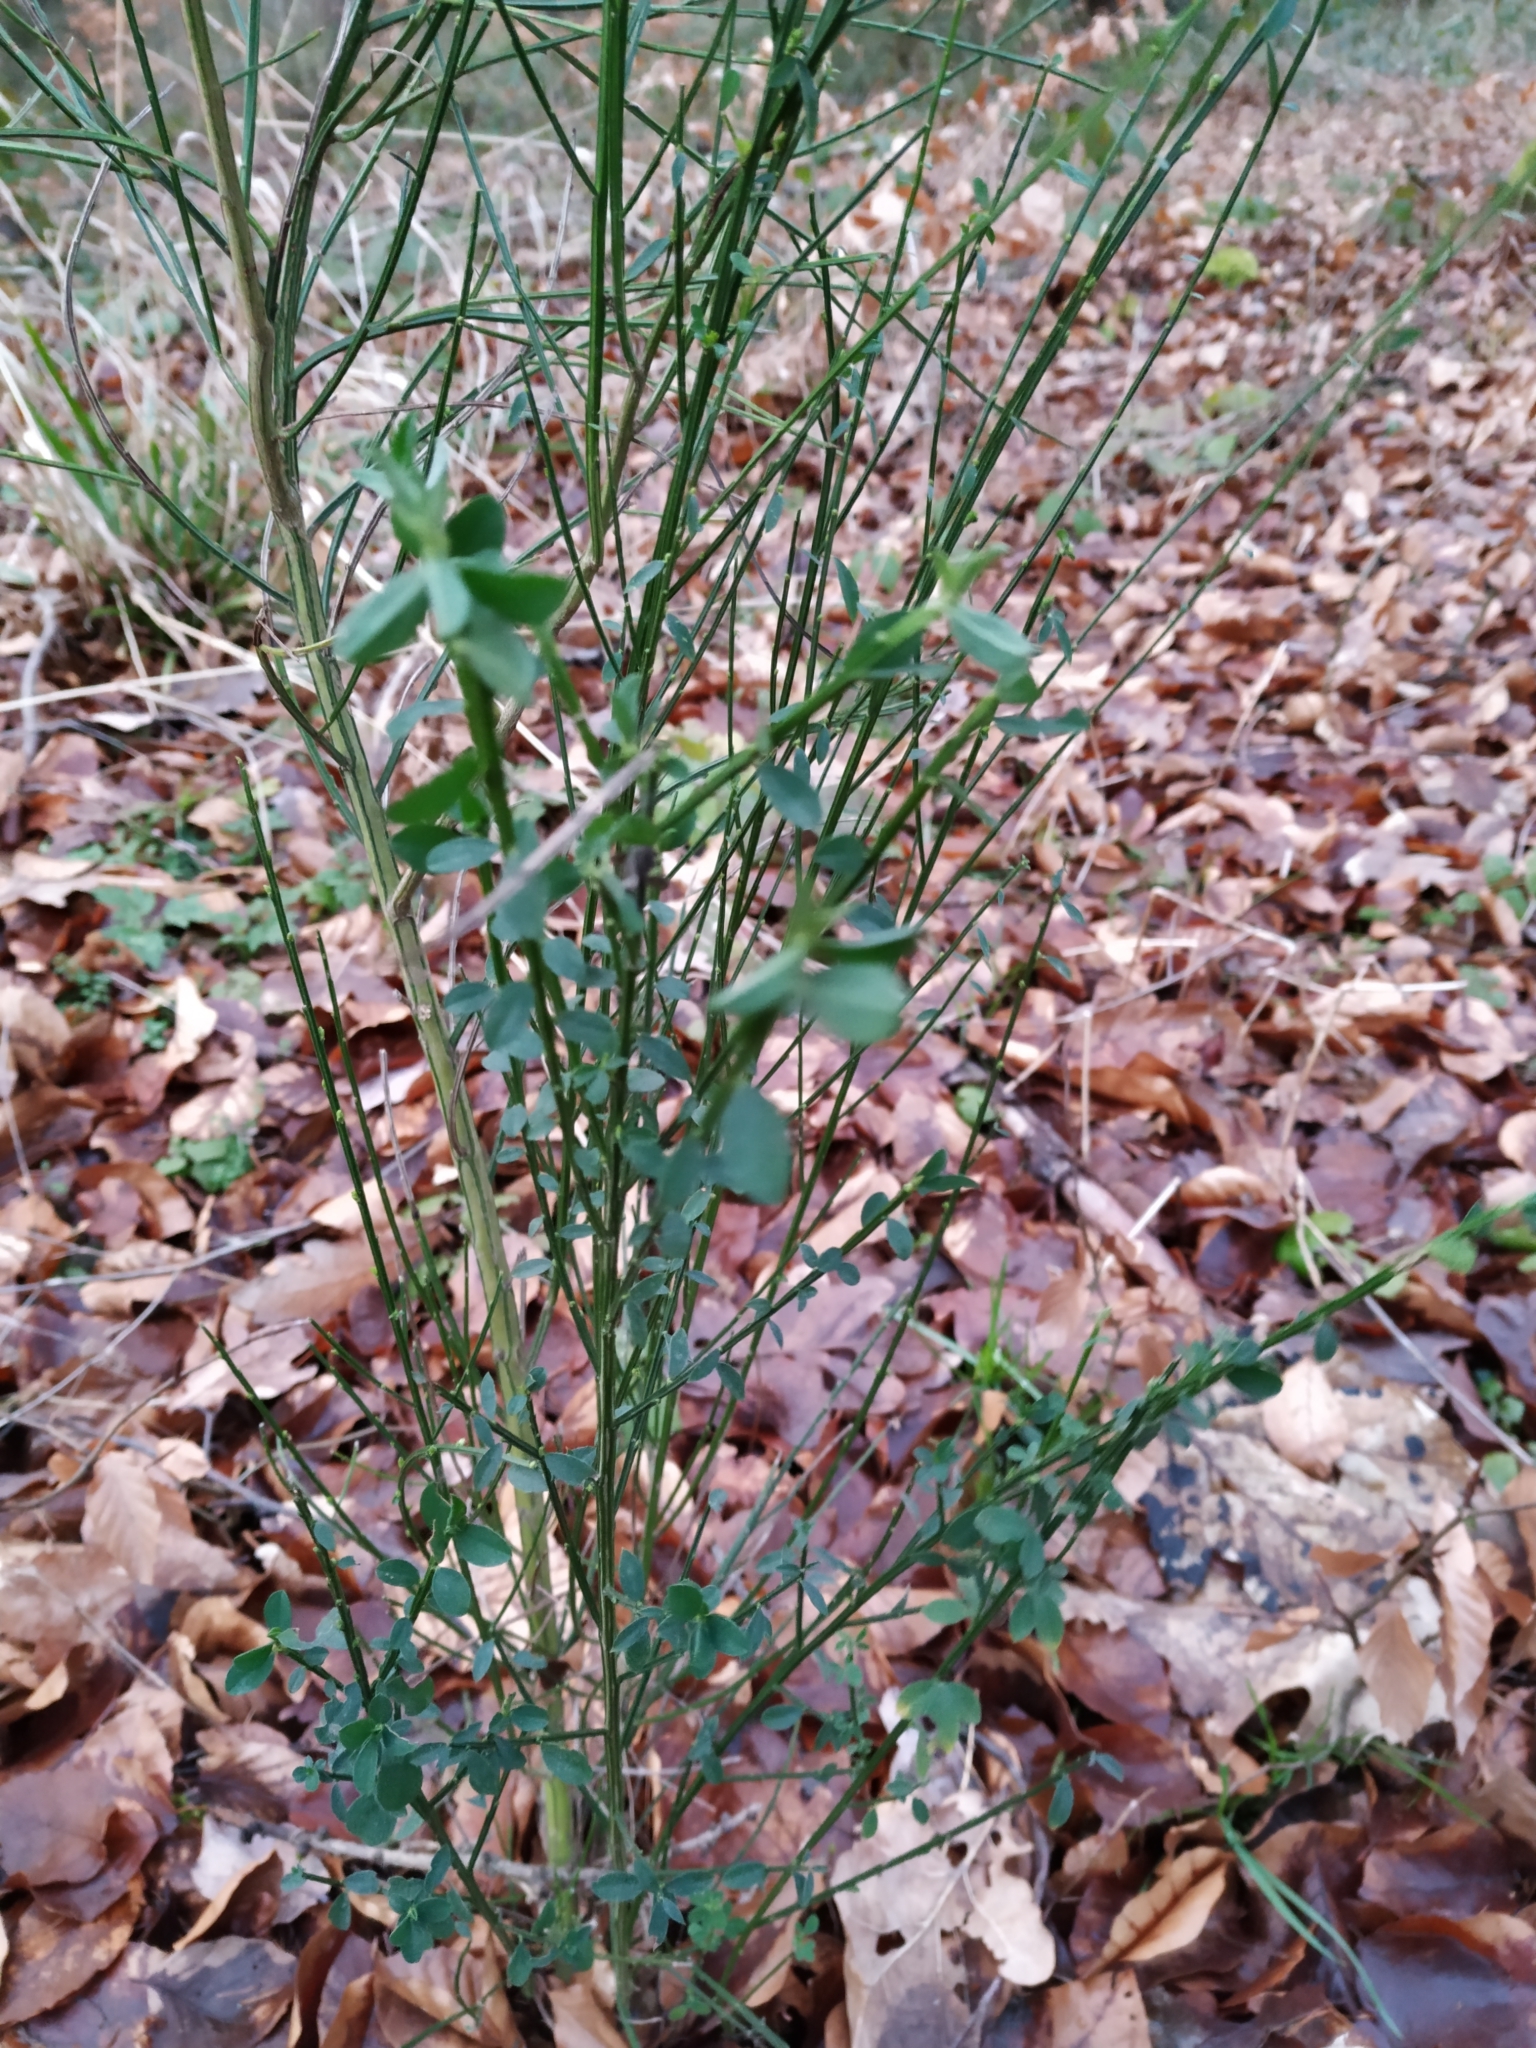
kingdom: Plantae
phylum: Tracheophyta
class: Magnoliopsida
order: Fabales
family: Fabaceae
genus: Cytisus
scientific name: Cytisus scoparius
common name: Scotch broom
